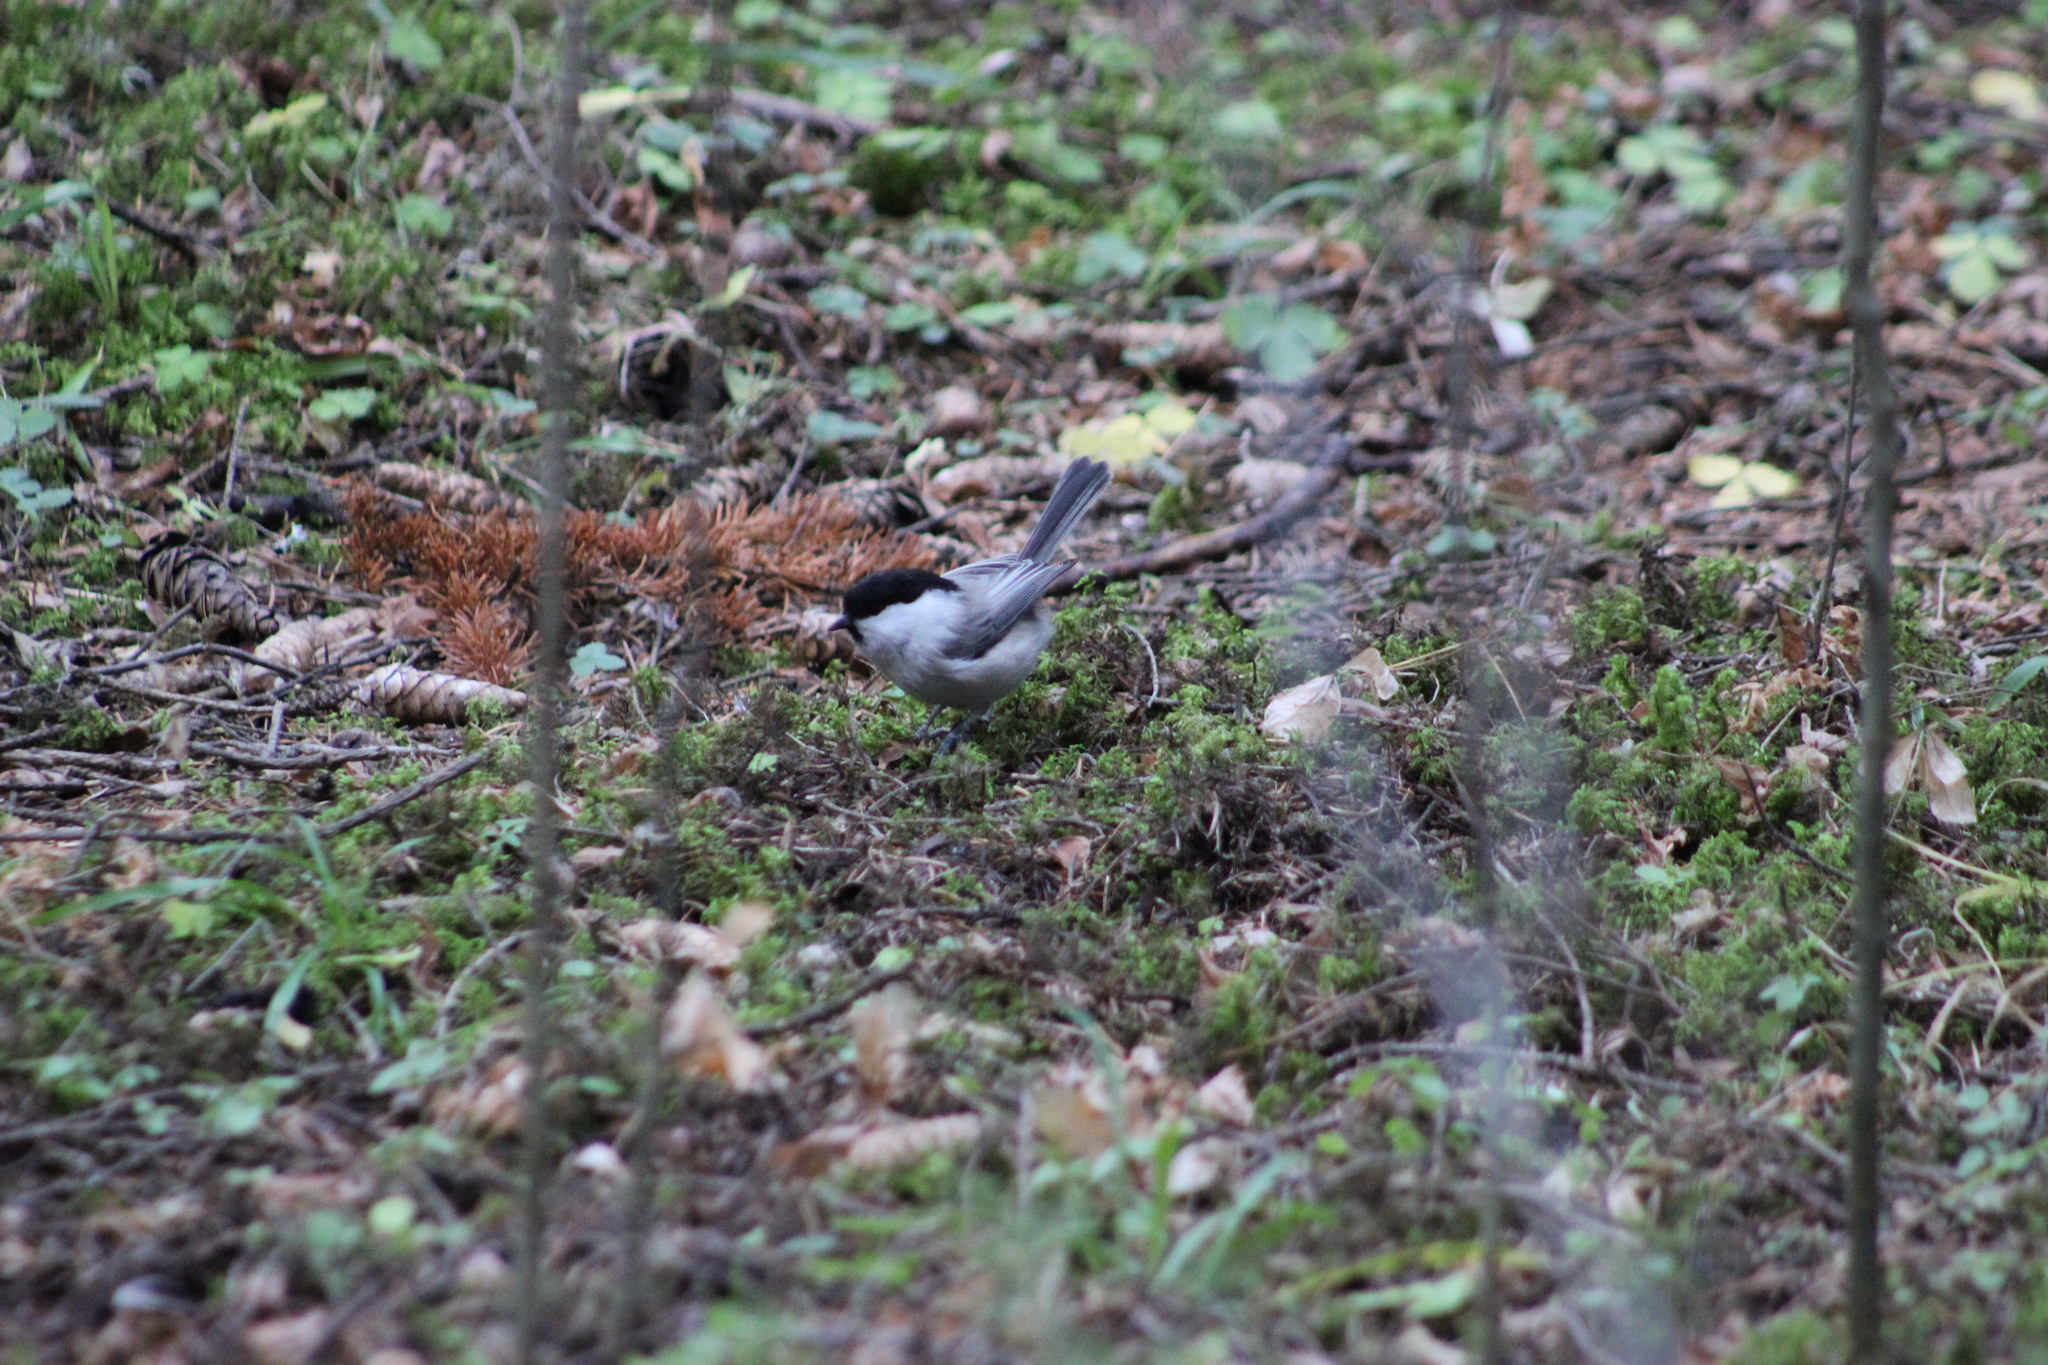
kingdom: Animalia
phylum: Chordata
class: Aves
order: Passeriformes
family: Paridae
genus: Poecile
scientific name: Poecile montanus
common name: Willow tit
